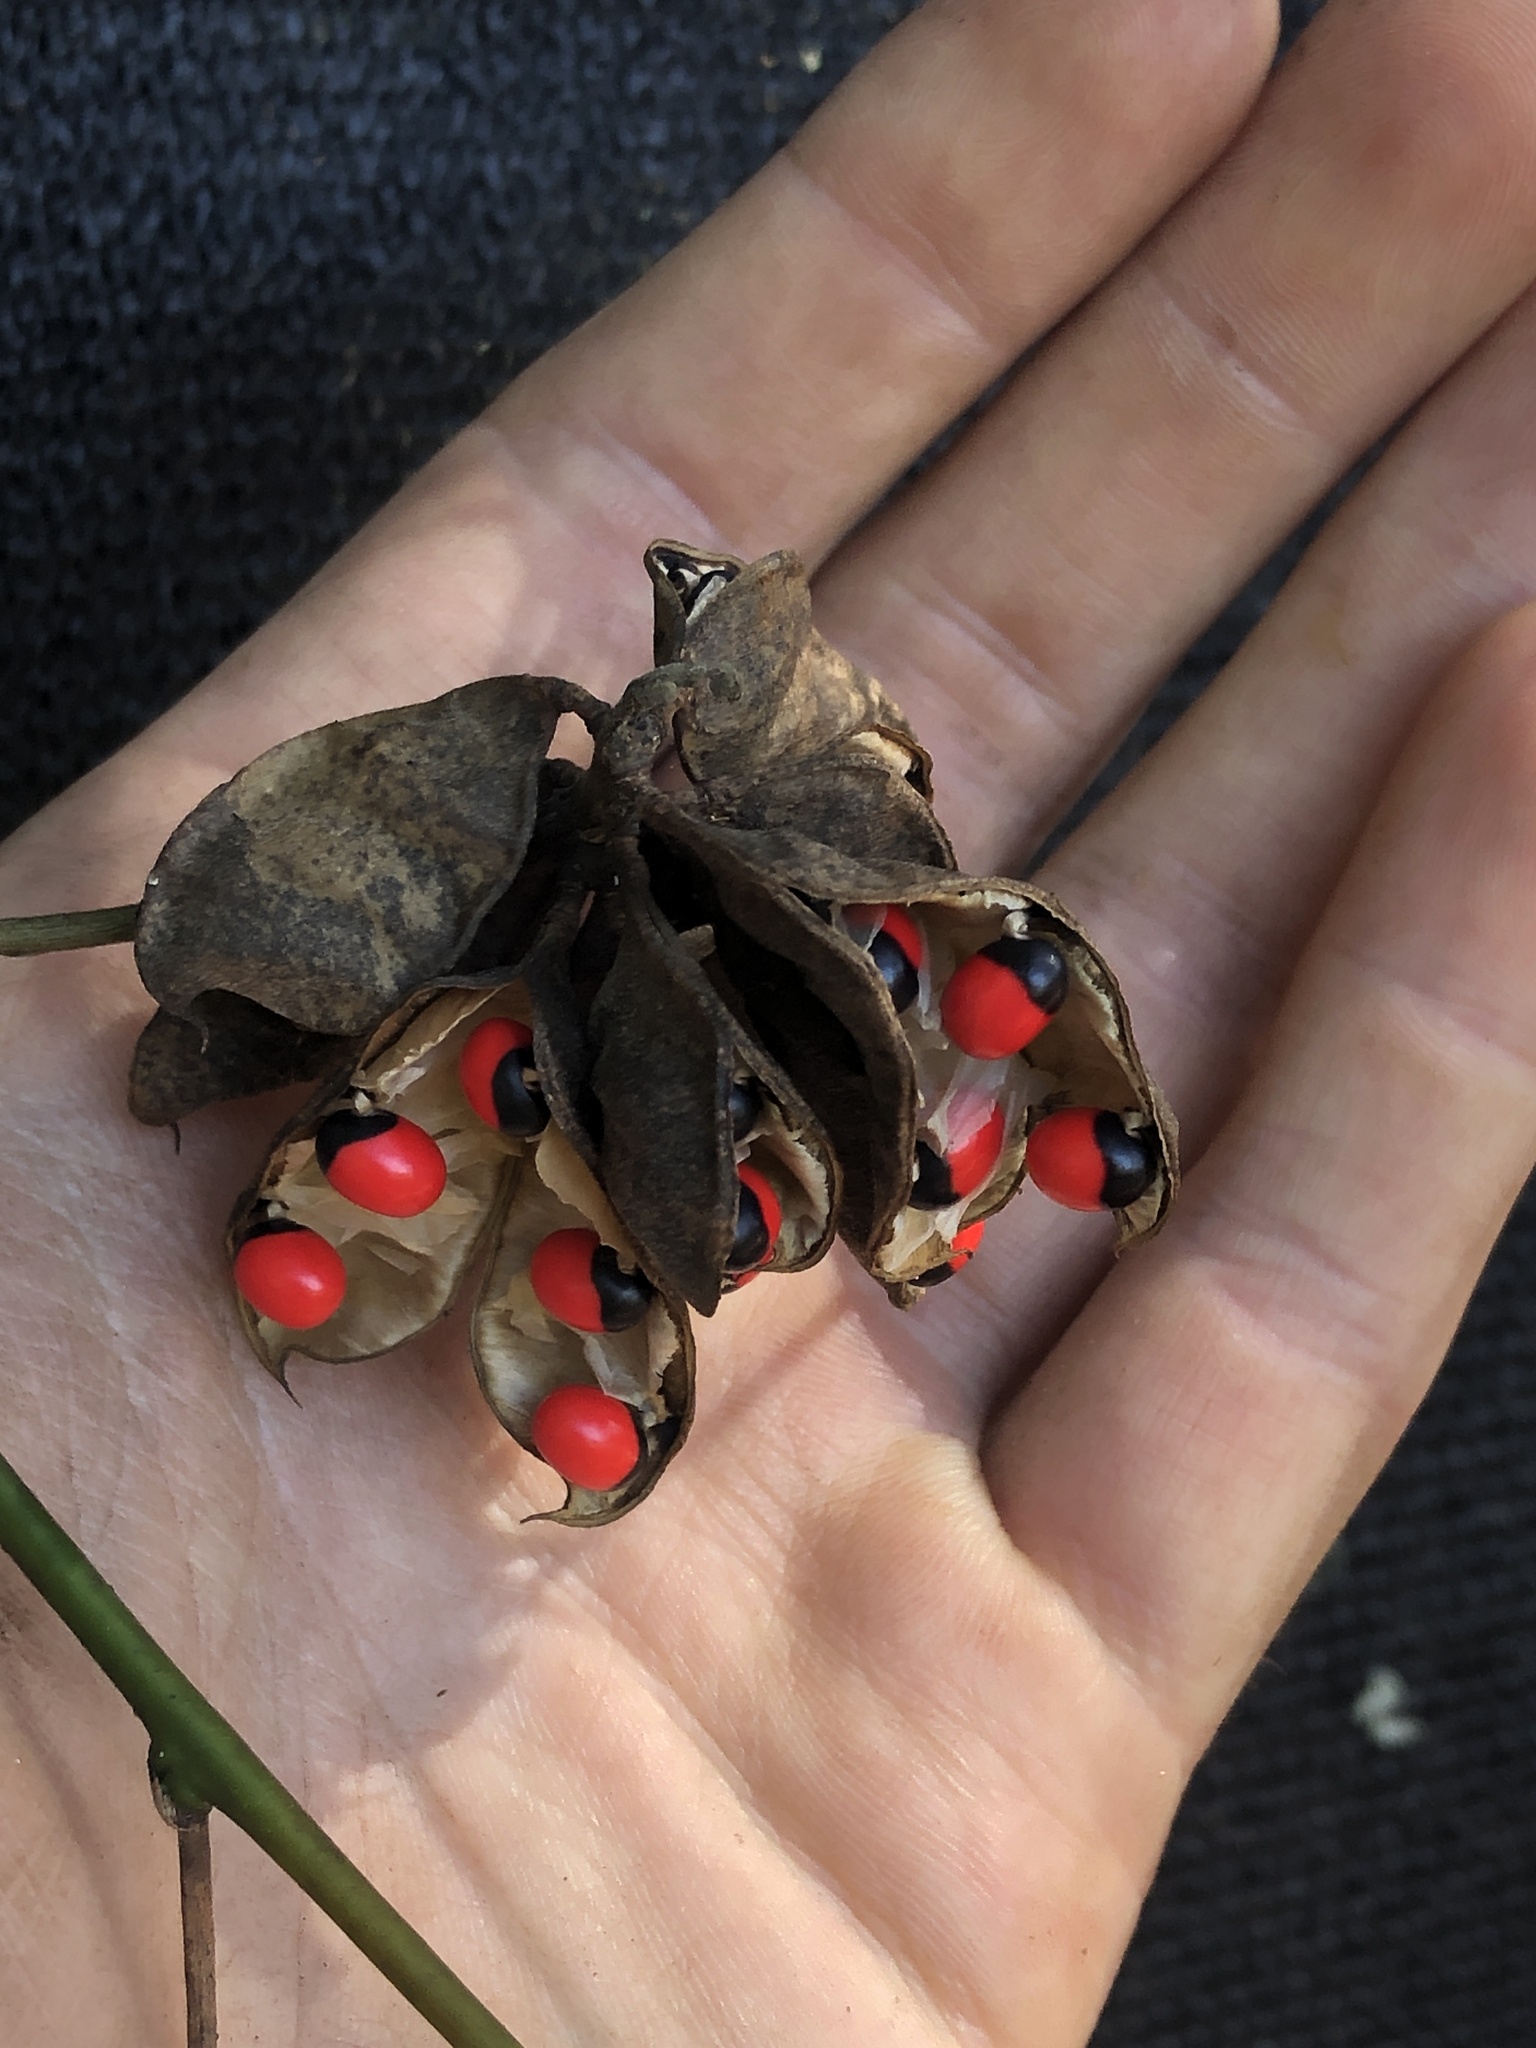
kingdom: Plantae
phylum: Tracheophyta
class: Magnoliopsida
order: Fabales
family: Fabaceae
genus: Abrus
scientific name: Abrus precatorius
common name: Rosarypea
